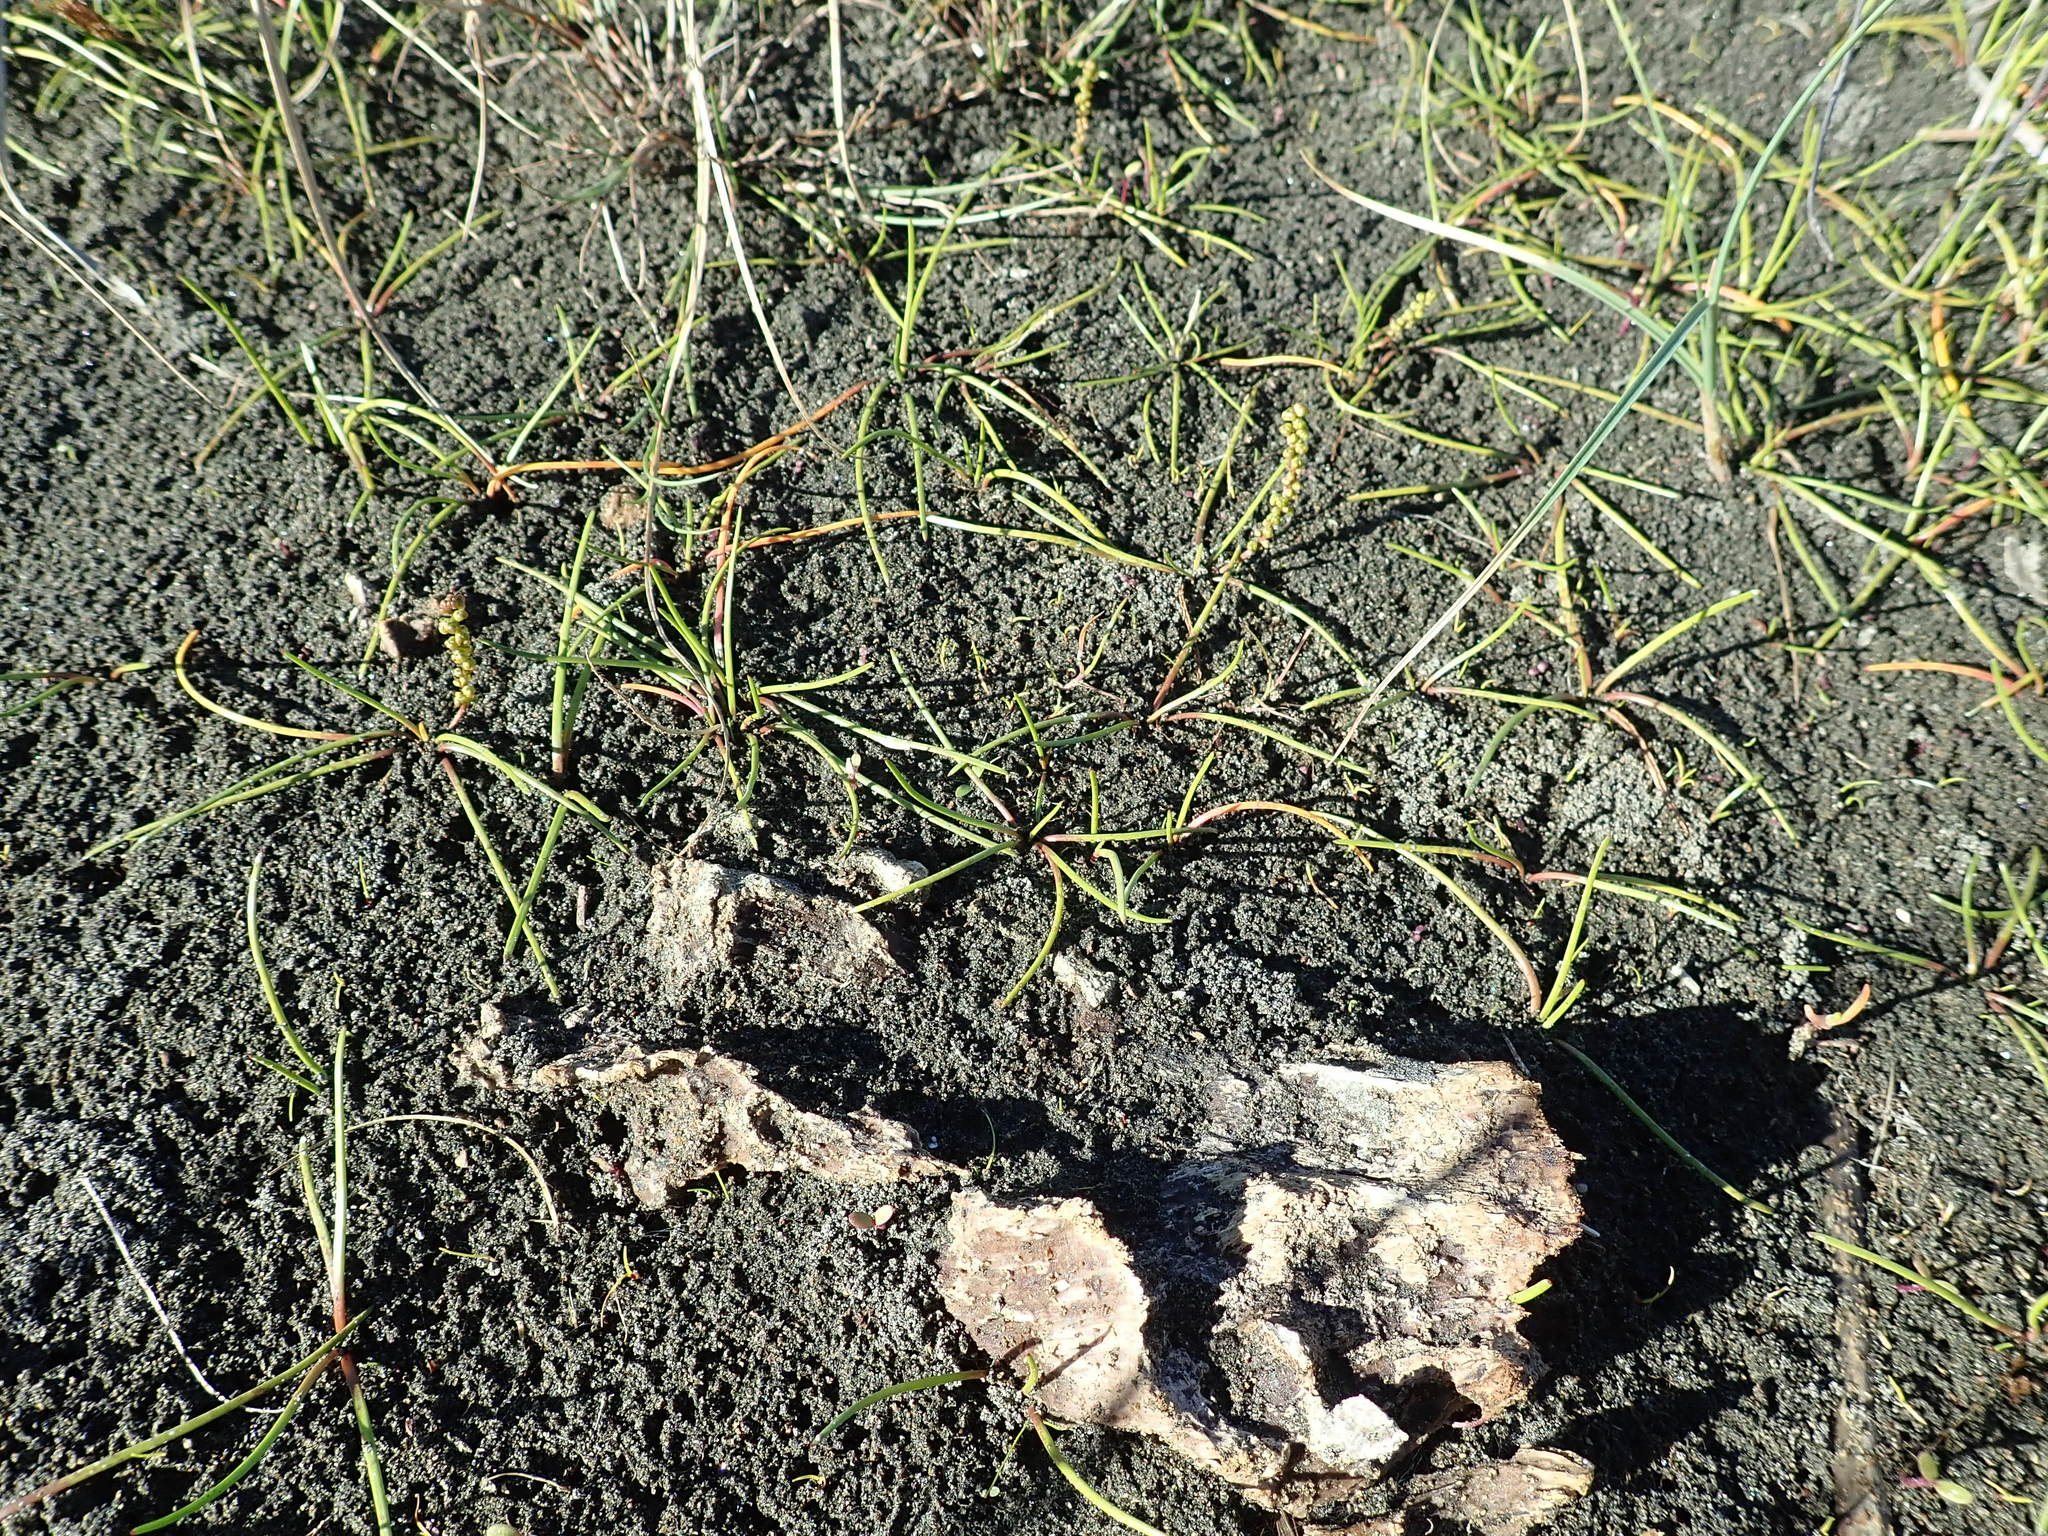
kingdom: Plantae
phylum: Tracheophyta
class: Liliopsida
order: Alismatales
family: Juncaginaceae
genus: Triglochin
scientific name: Triglochin striata
